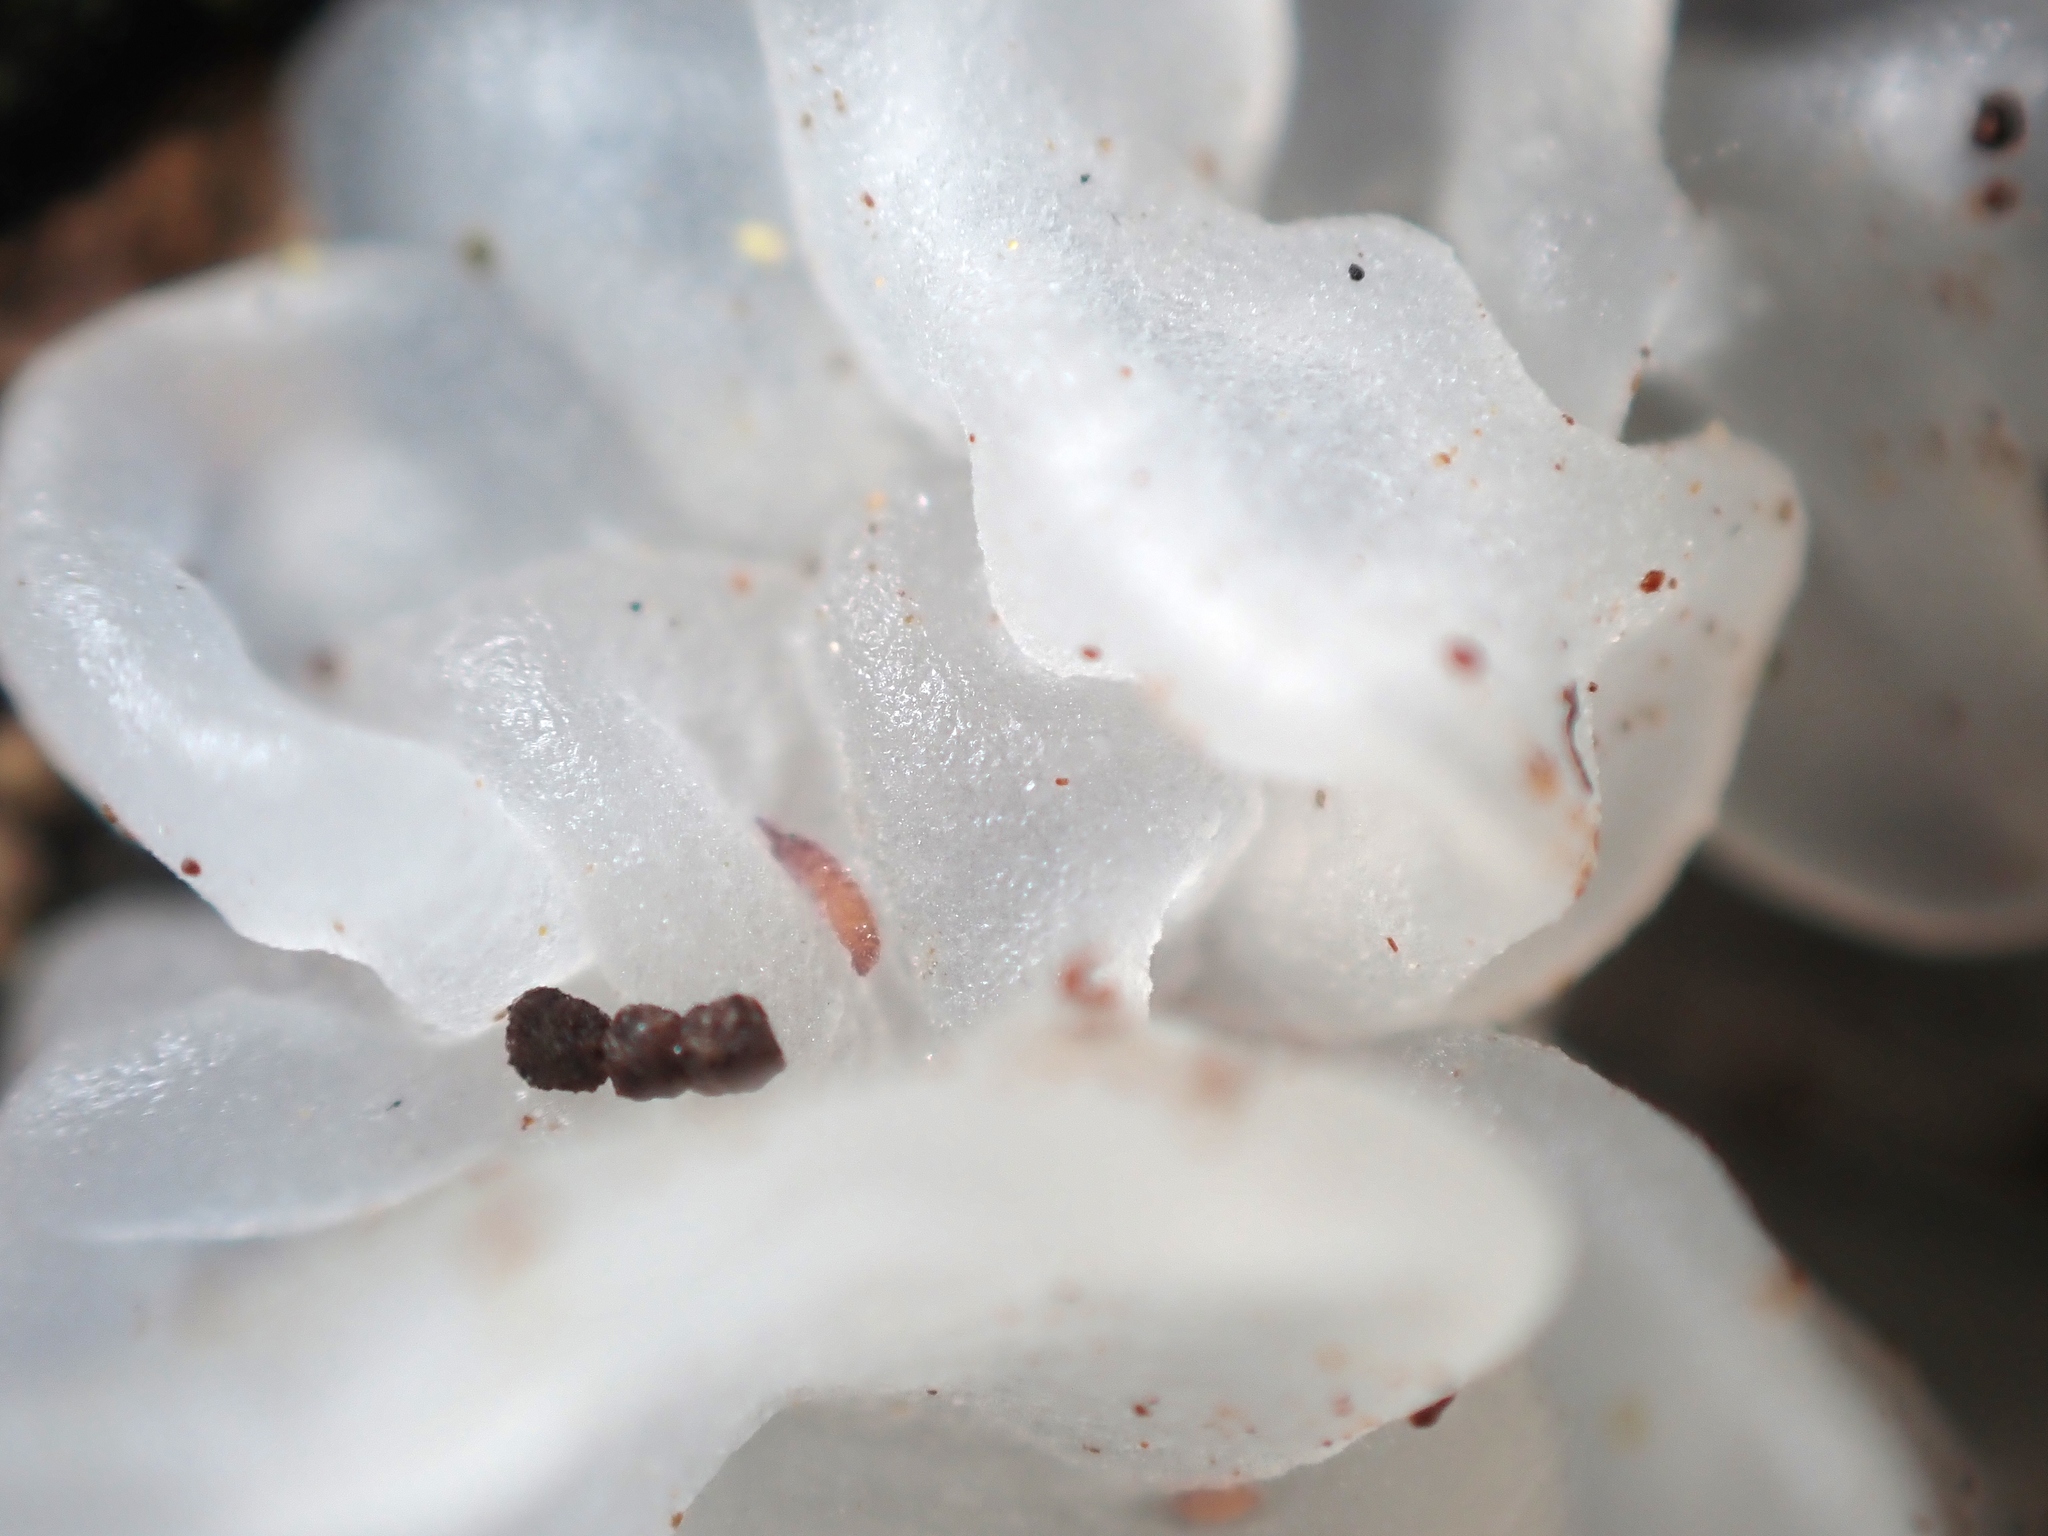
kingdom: Fungi
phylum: Basidiomycota
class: Tremellomycetes
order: Tremellales
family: Tremellaceae
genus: Tremella
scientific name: Tremella fuciformis
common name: Snow fungus
